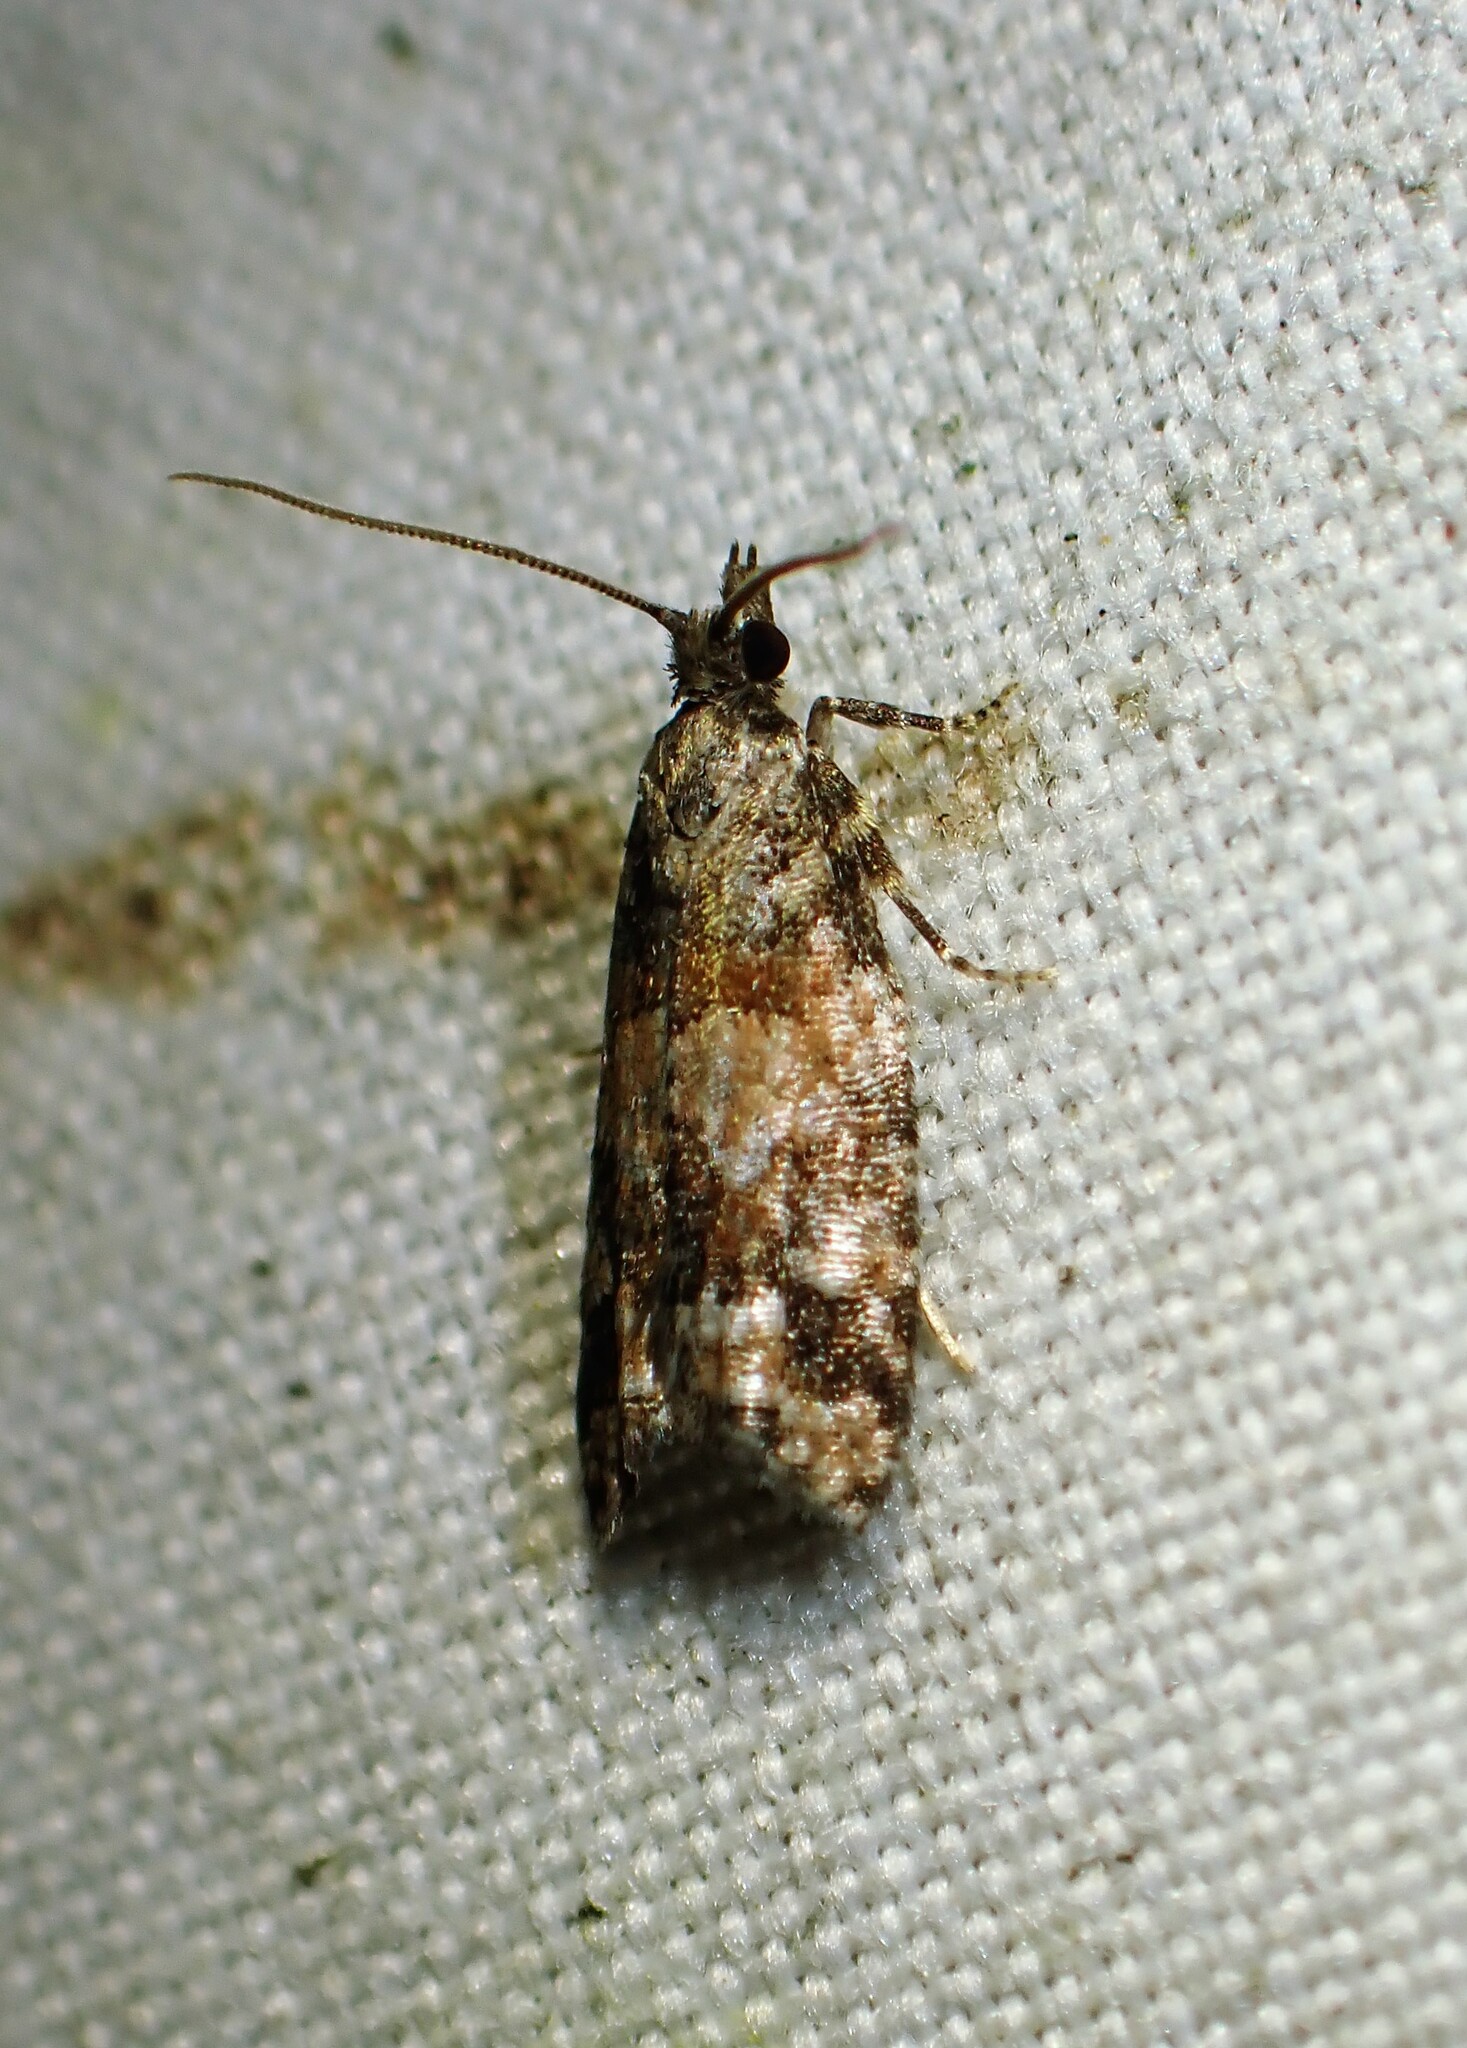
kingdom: Animalia
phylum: Arthropoda
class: Insecta
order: Lepidoptera
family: Tortricidae
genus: Epinotia
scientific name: Epinotia radicana
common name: Red-striped needleworm moth
